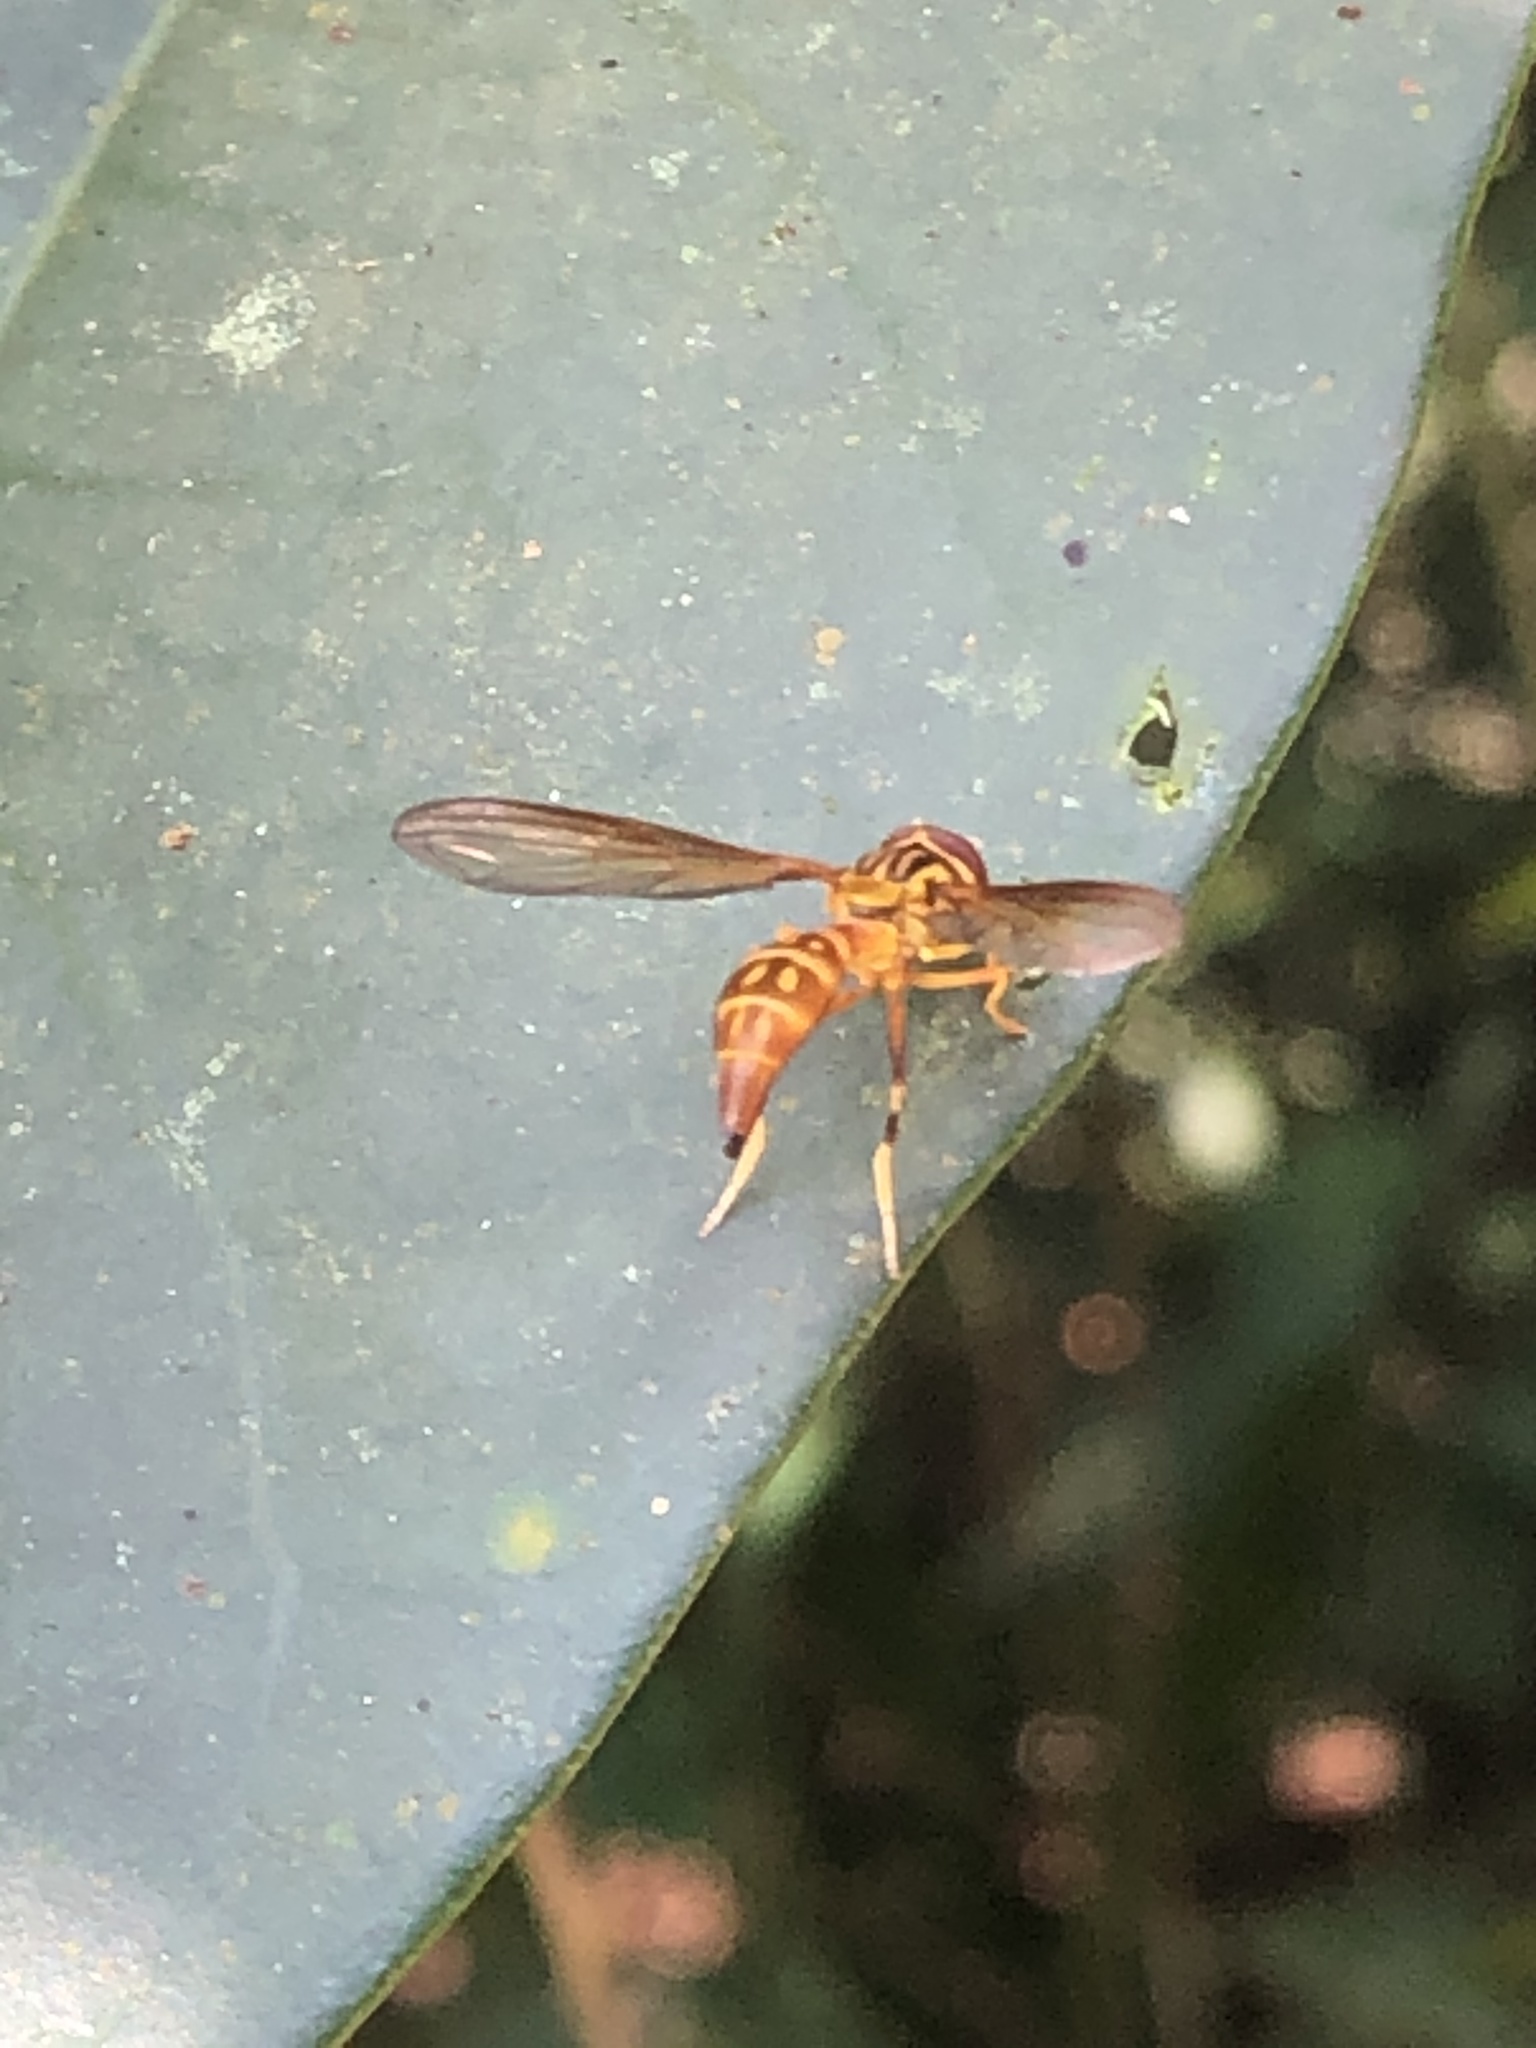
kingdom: Animalia
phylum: Arthropoda
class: Insecta
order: Diptera
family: Syrphidae
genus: Pelecinobaccha
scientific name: Pelecinobaccha cubensis
